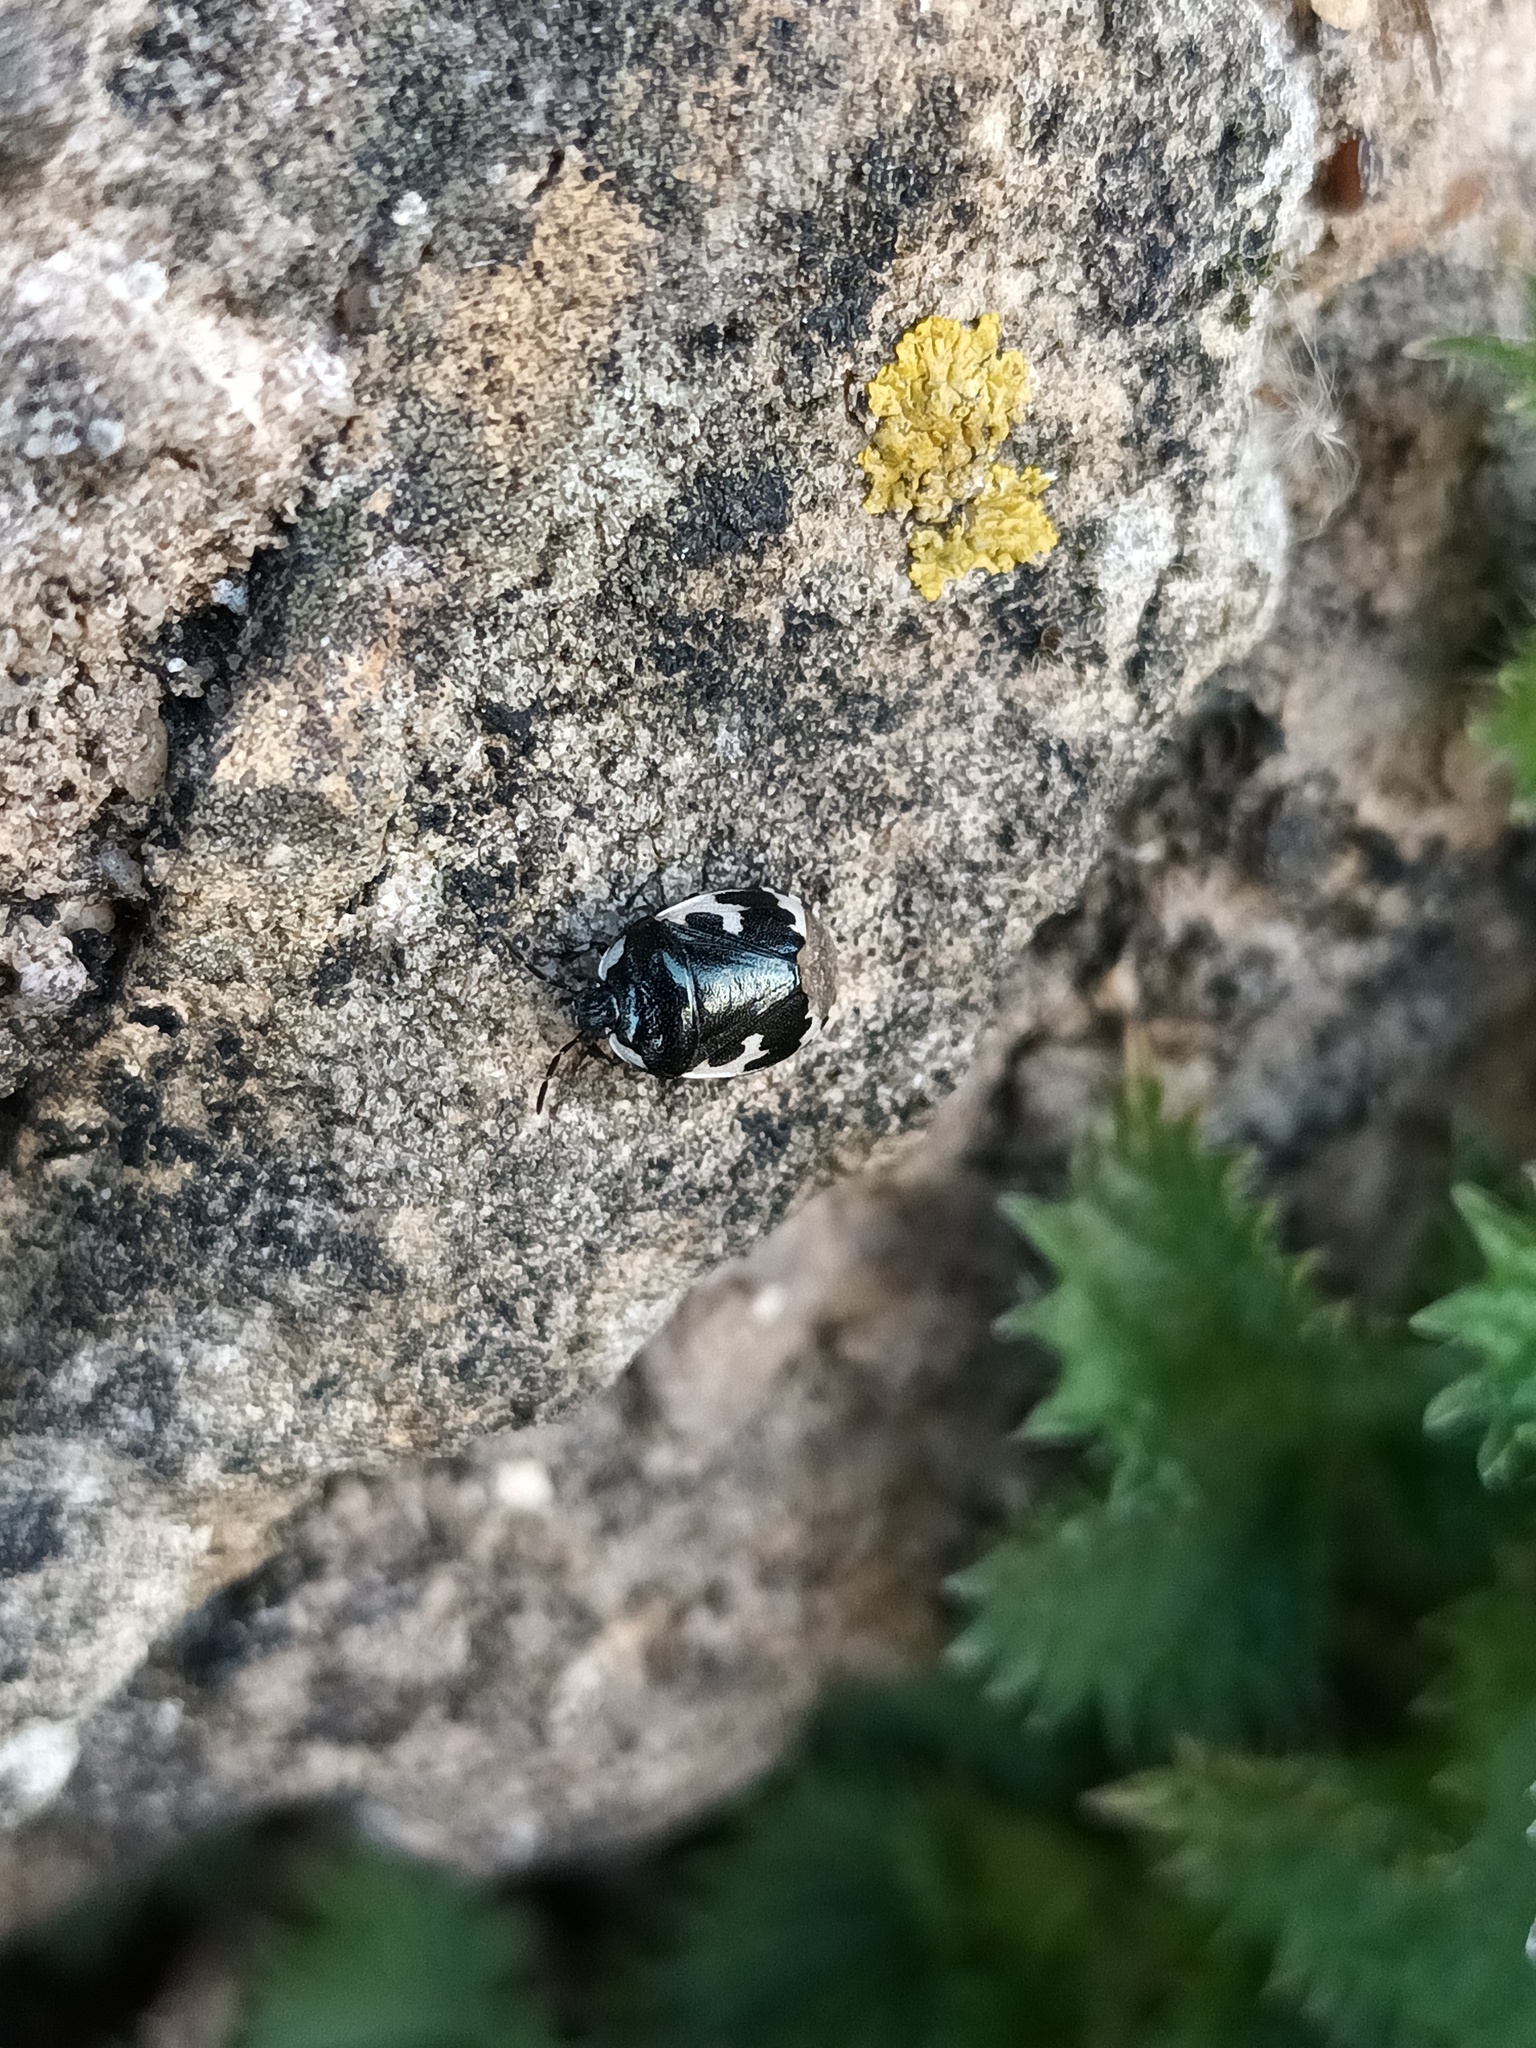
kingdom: Animalia
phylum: Arthropoda
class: Insecta
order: Hemiptera
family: Cydnidae
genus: Tritomegas
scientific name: Tritomegas bicolor
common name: Pied shieldbug
